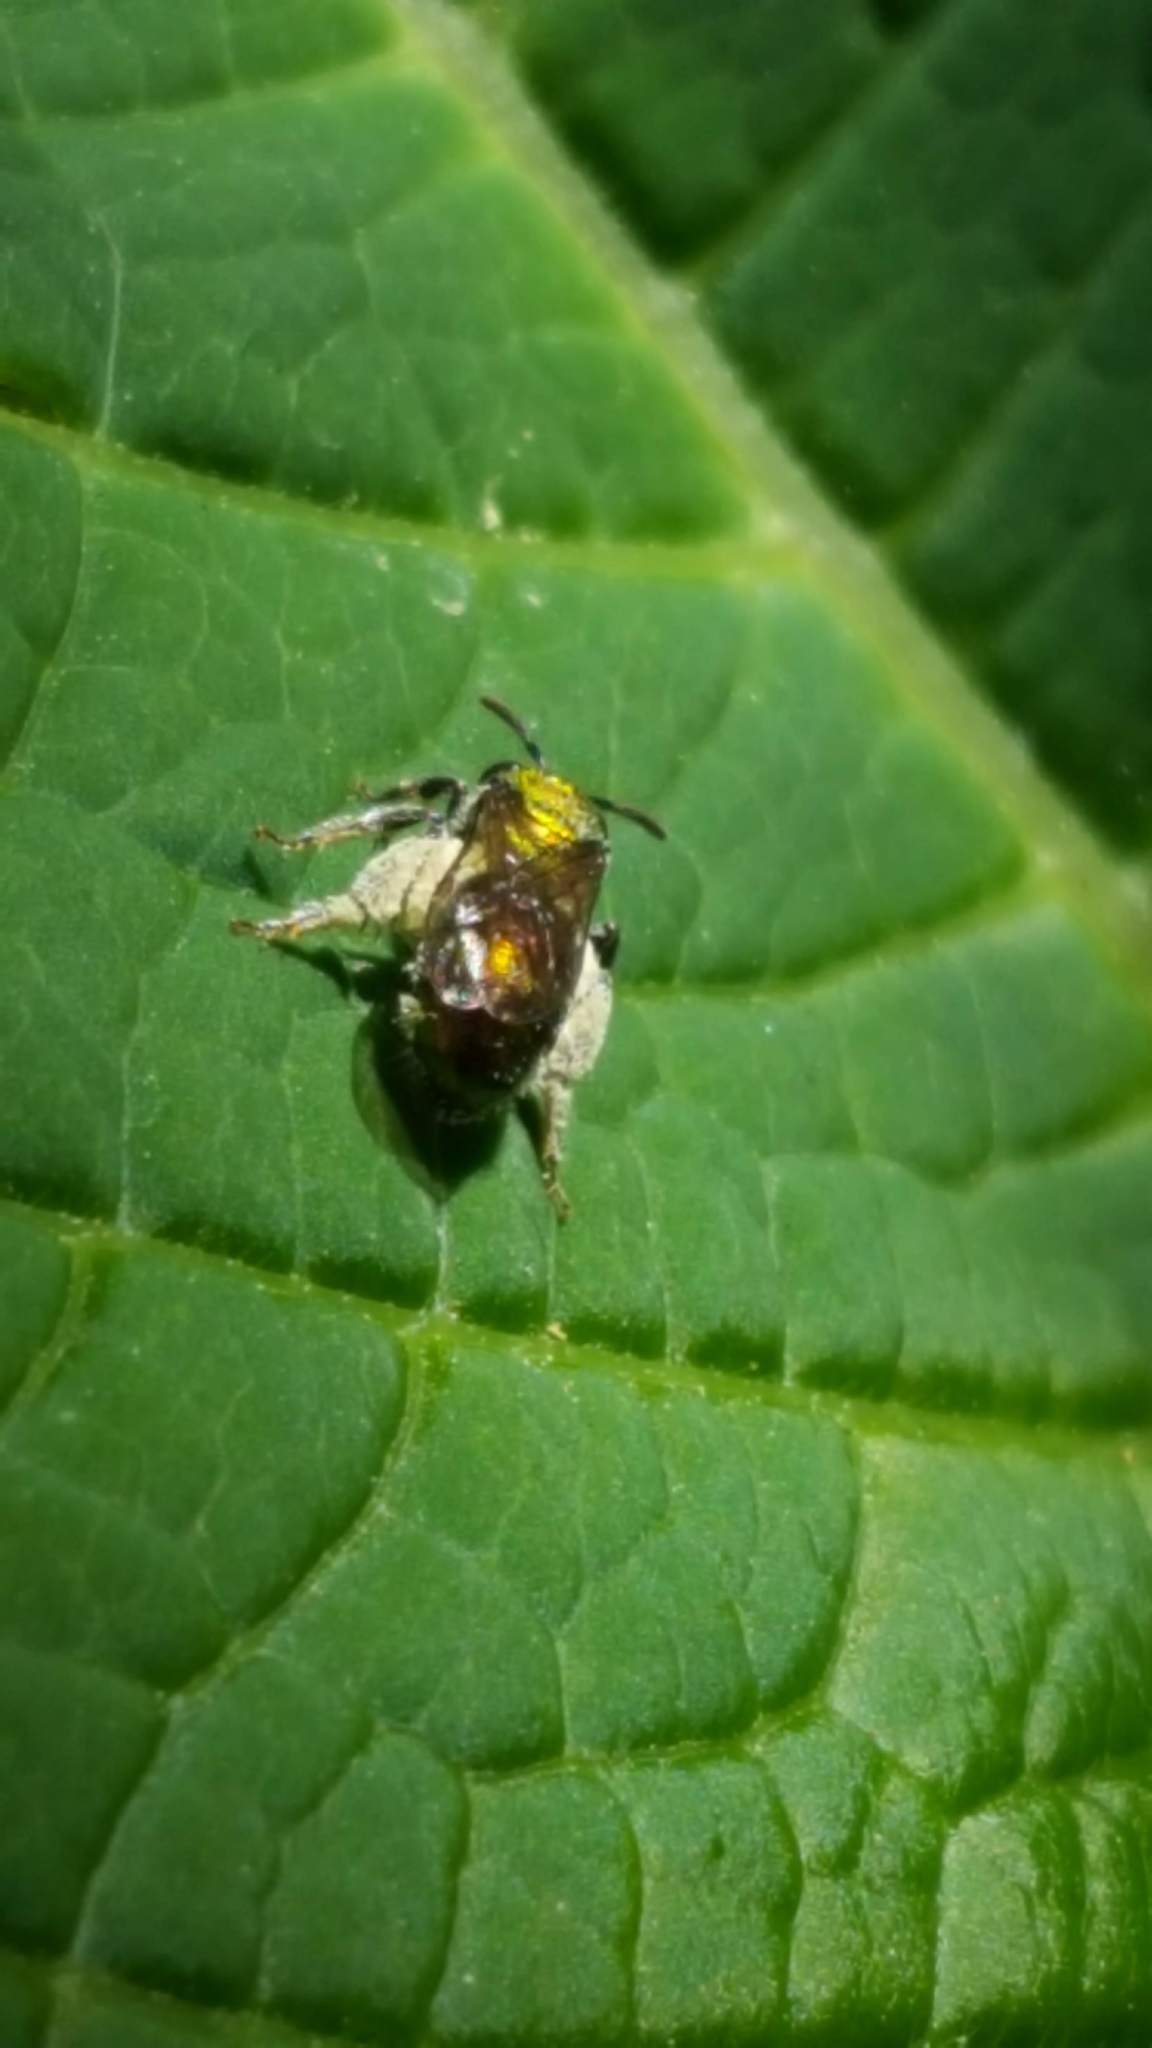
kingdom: Animalia
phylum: Arthropoda
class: Insecta
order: Hymenoptera
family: Halictidae
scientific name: Halictidae
